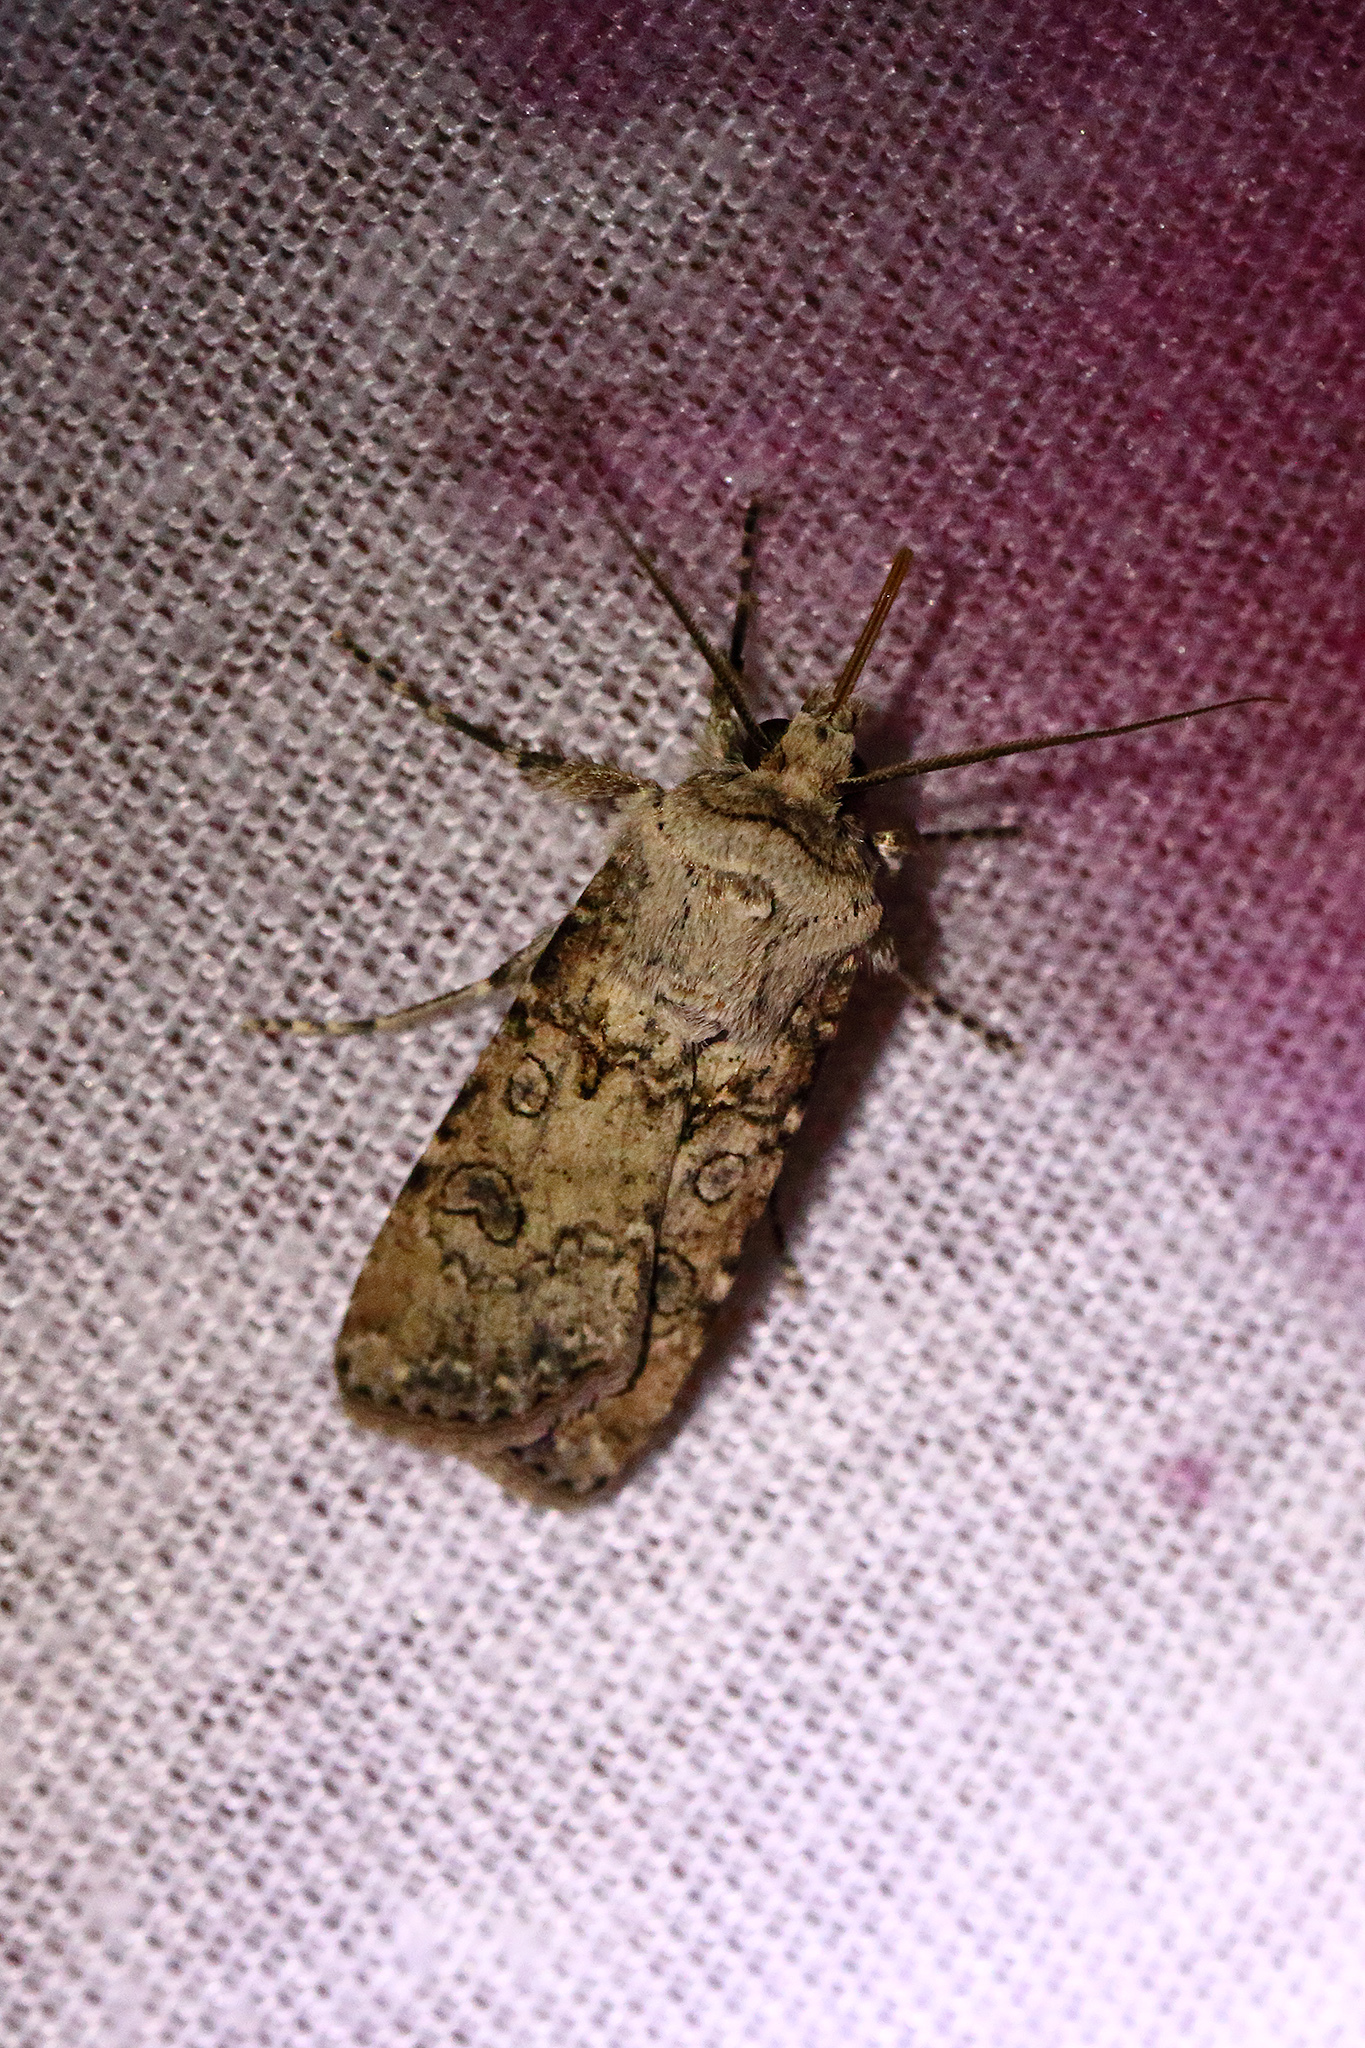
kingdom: Animalia
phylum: Arthropoda
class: Insecta
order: Lepidoptera
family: Noctuidae
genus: Agrotis
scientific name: Agrotis segetum
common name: Turnip moth
